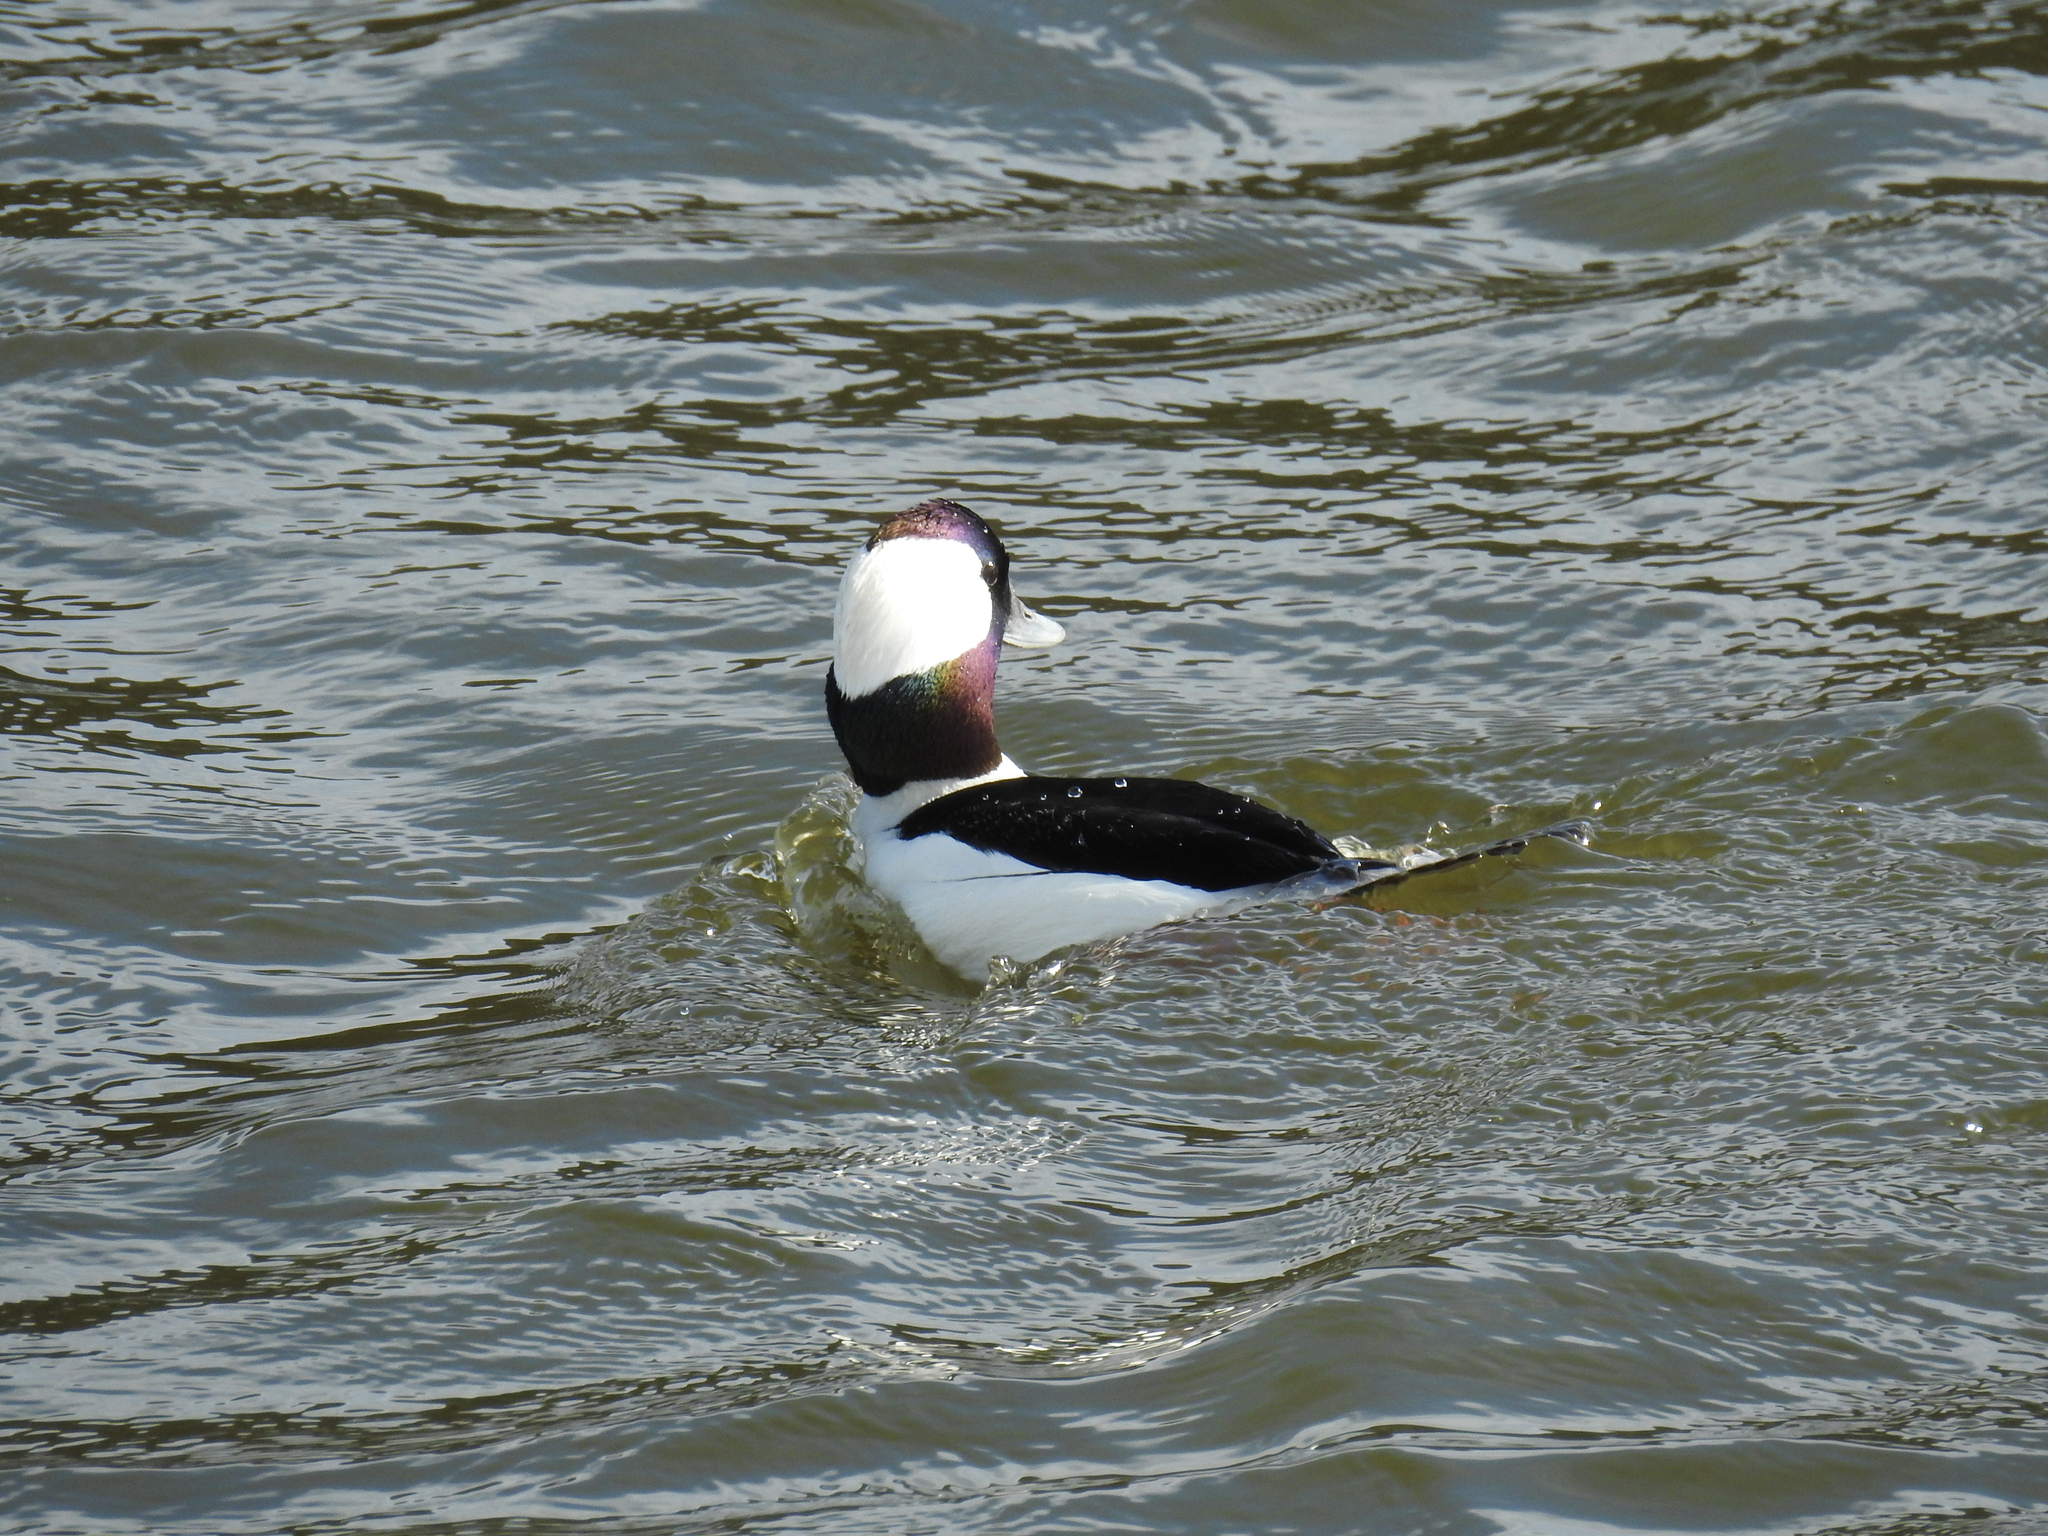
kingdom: Animalia
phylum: Chordata
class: Aves
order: Anseriformes
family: Anatidae
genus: Bucephala
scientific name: Bucephala albeola
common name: Bufflehead
